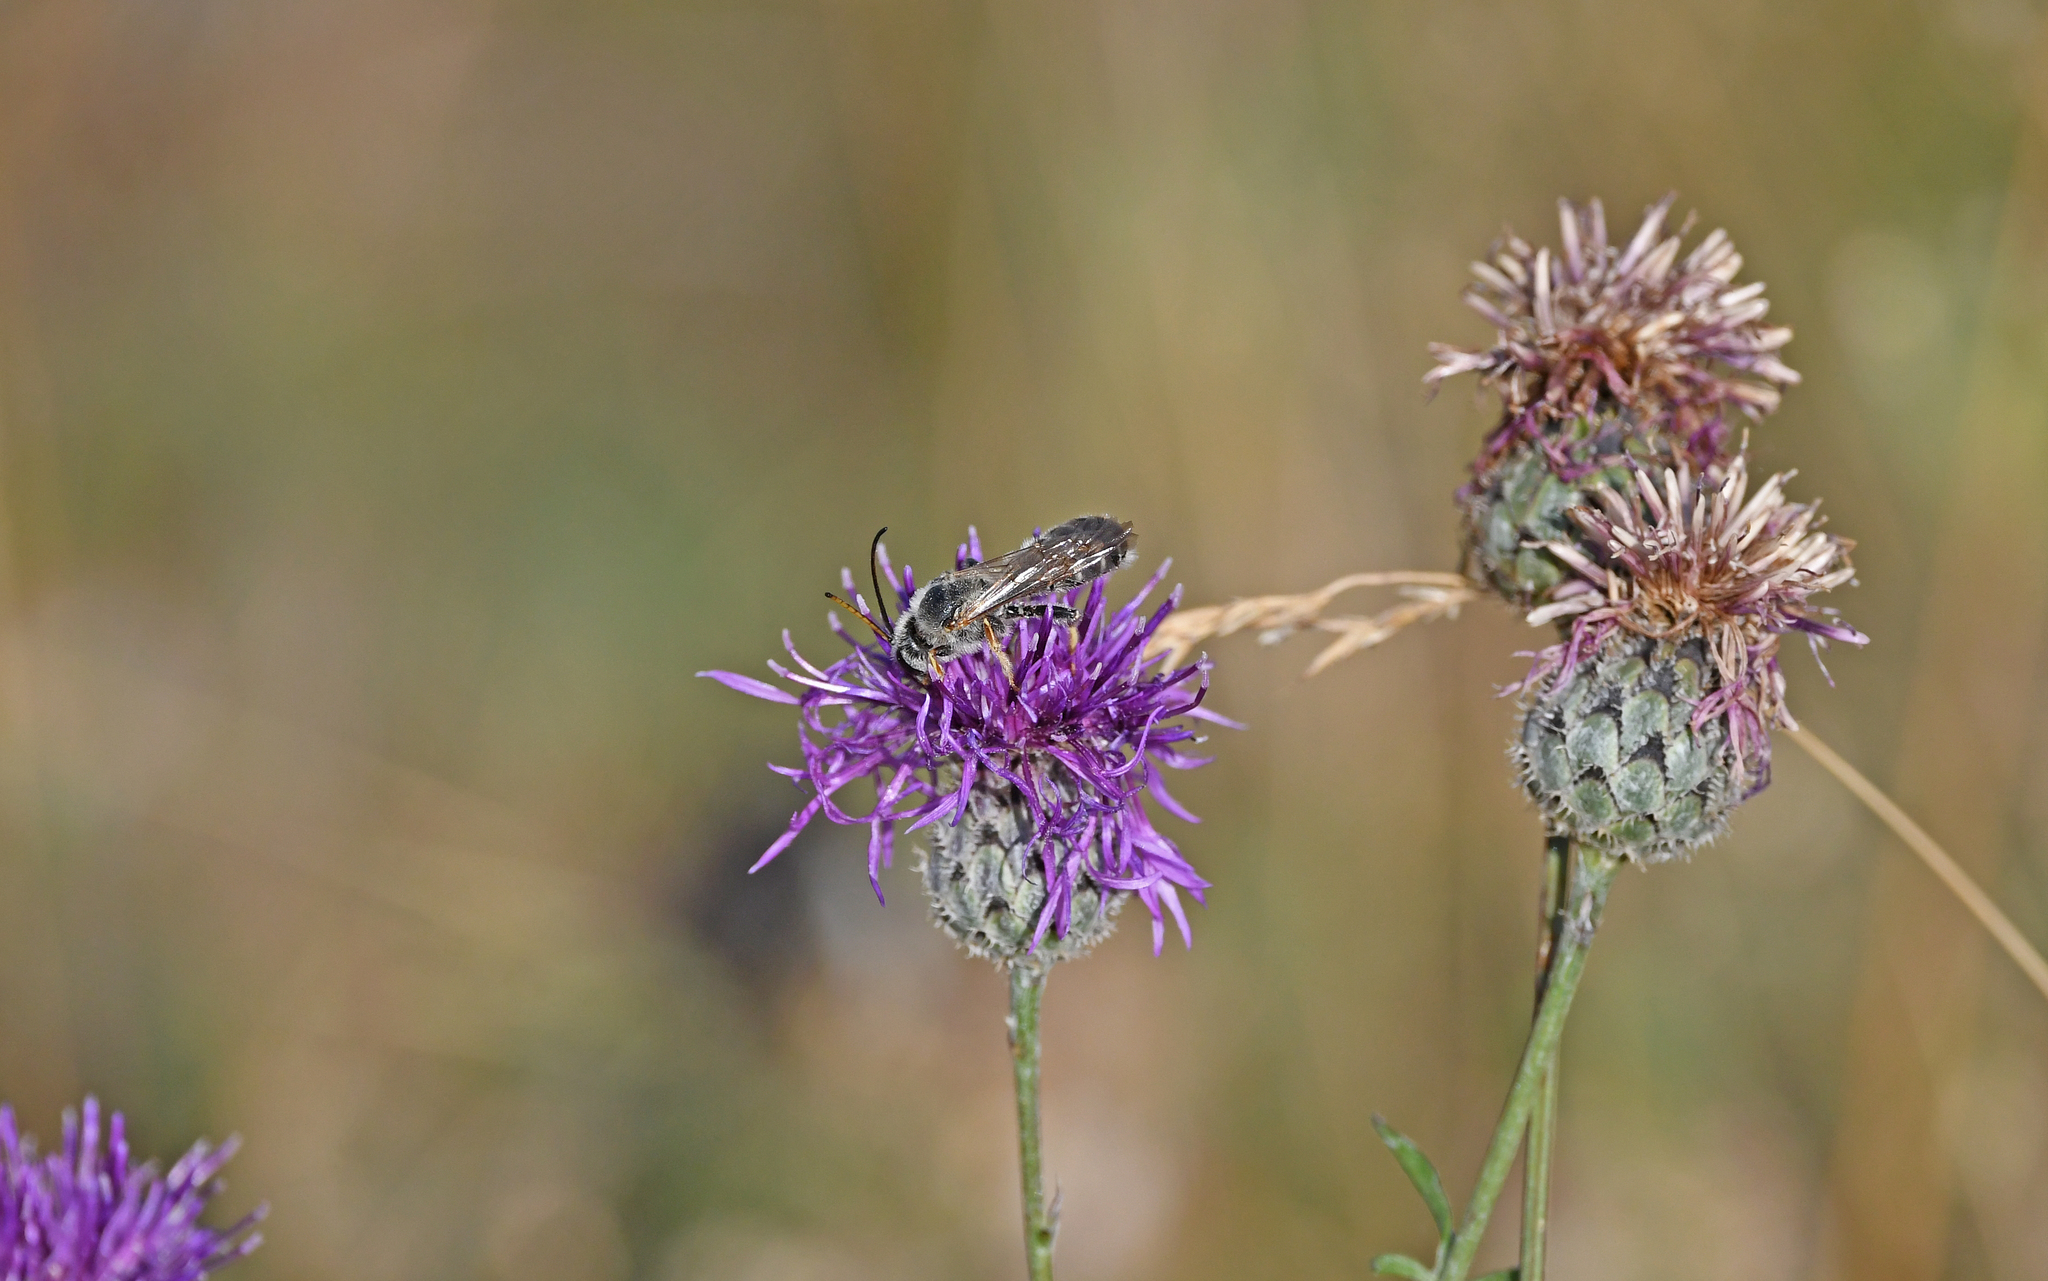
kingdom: Animalia
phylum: Arthropoda
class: Insecta
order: Hymenoptera
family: Halictidae
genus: Halictus
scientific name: Halictus quadricinctus
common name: Giant furrow bee
